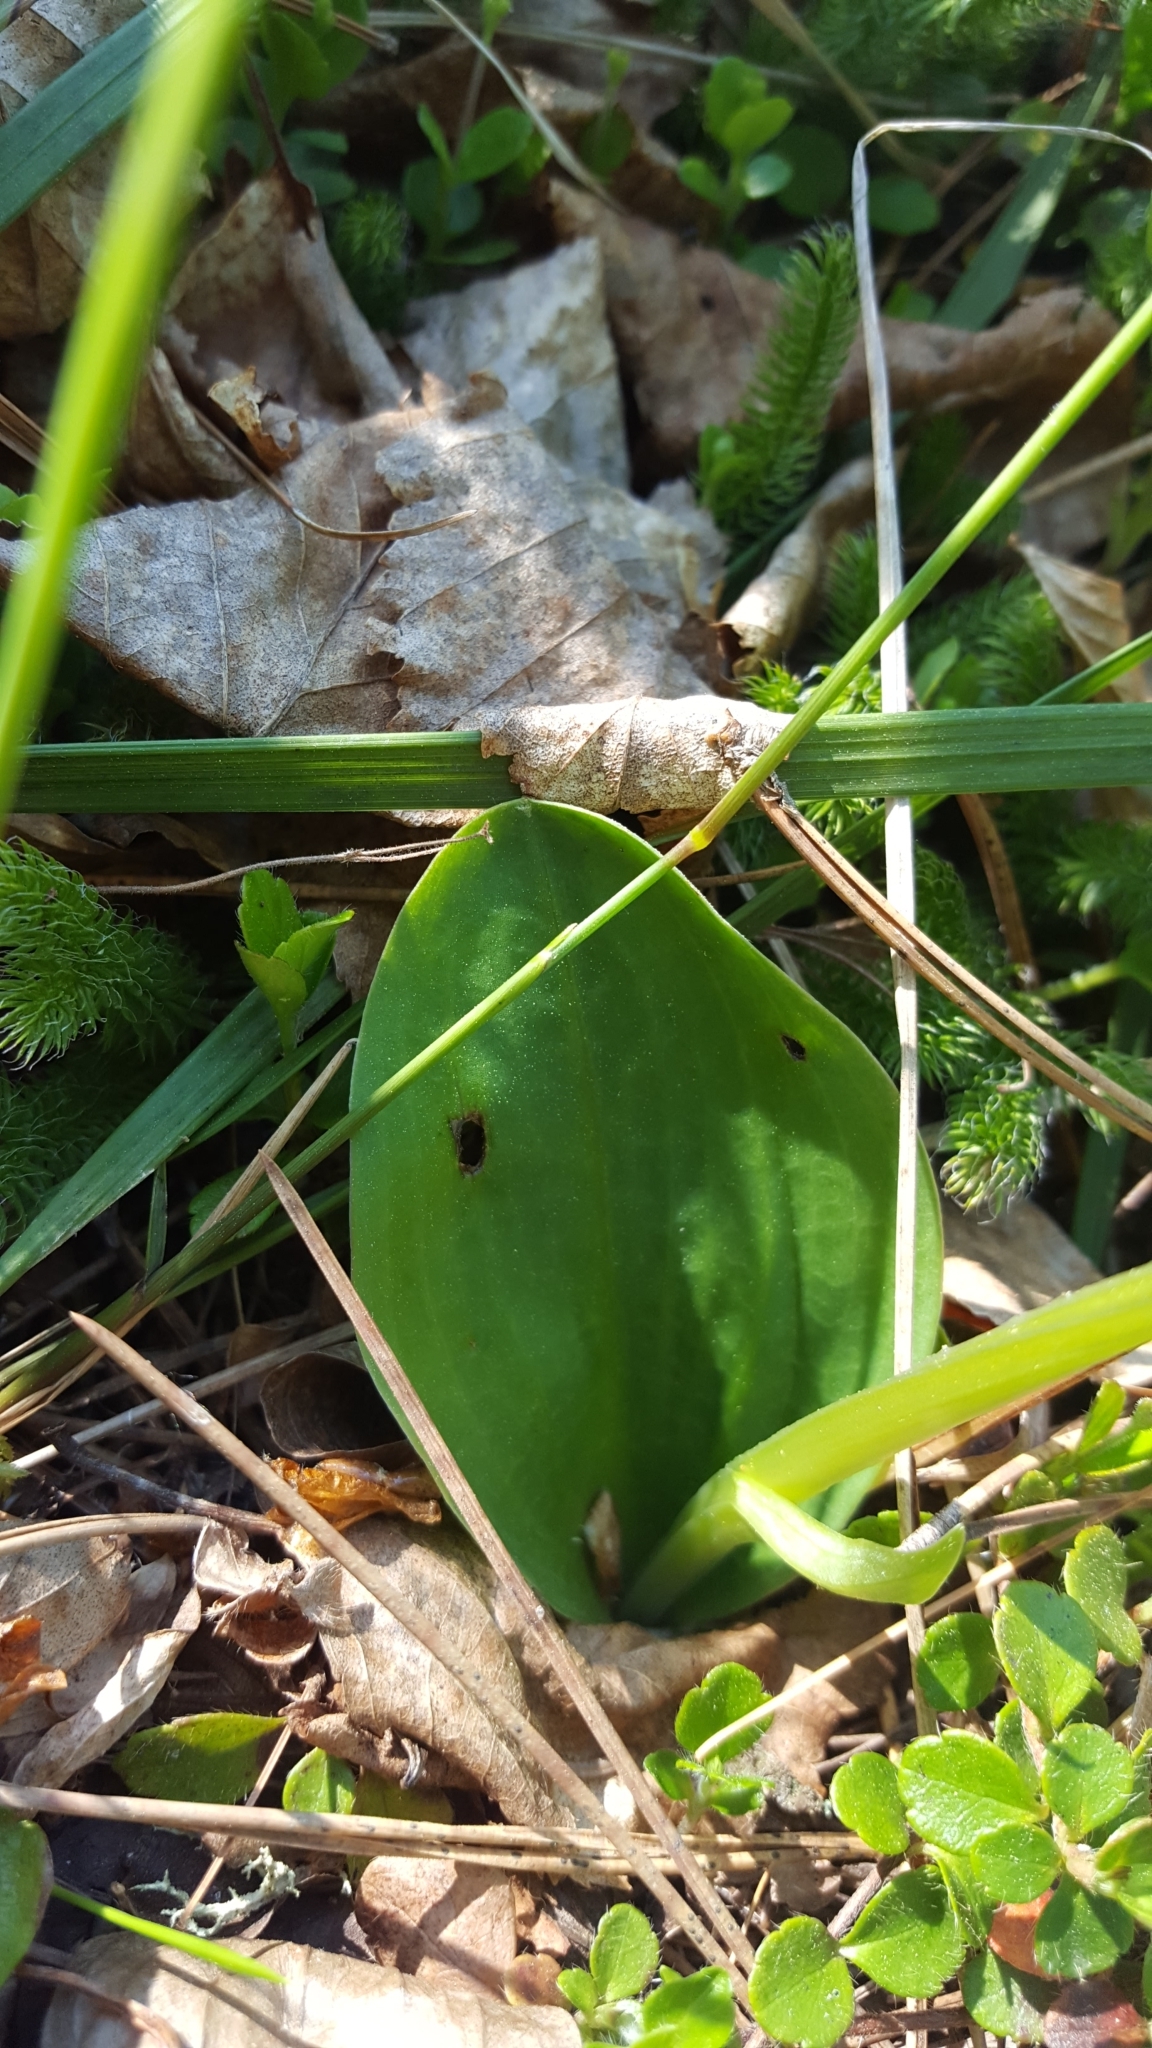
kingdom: Plantae
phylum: Tracheophyta
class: Liliopsida
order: Asparagales
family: Orchidaceae
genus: Platanthera
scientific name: Platanthera hookeri
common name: Hooker's orchid
